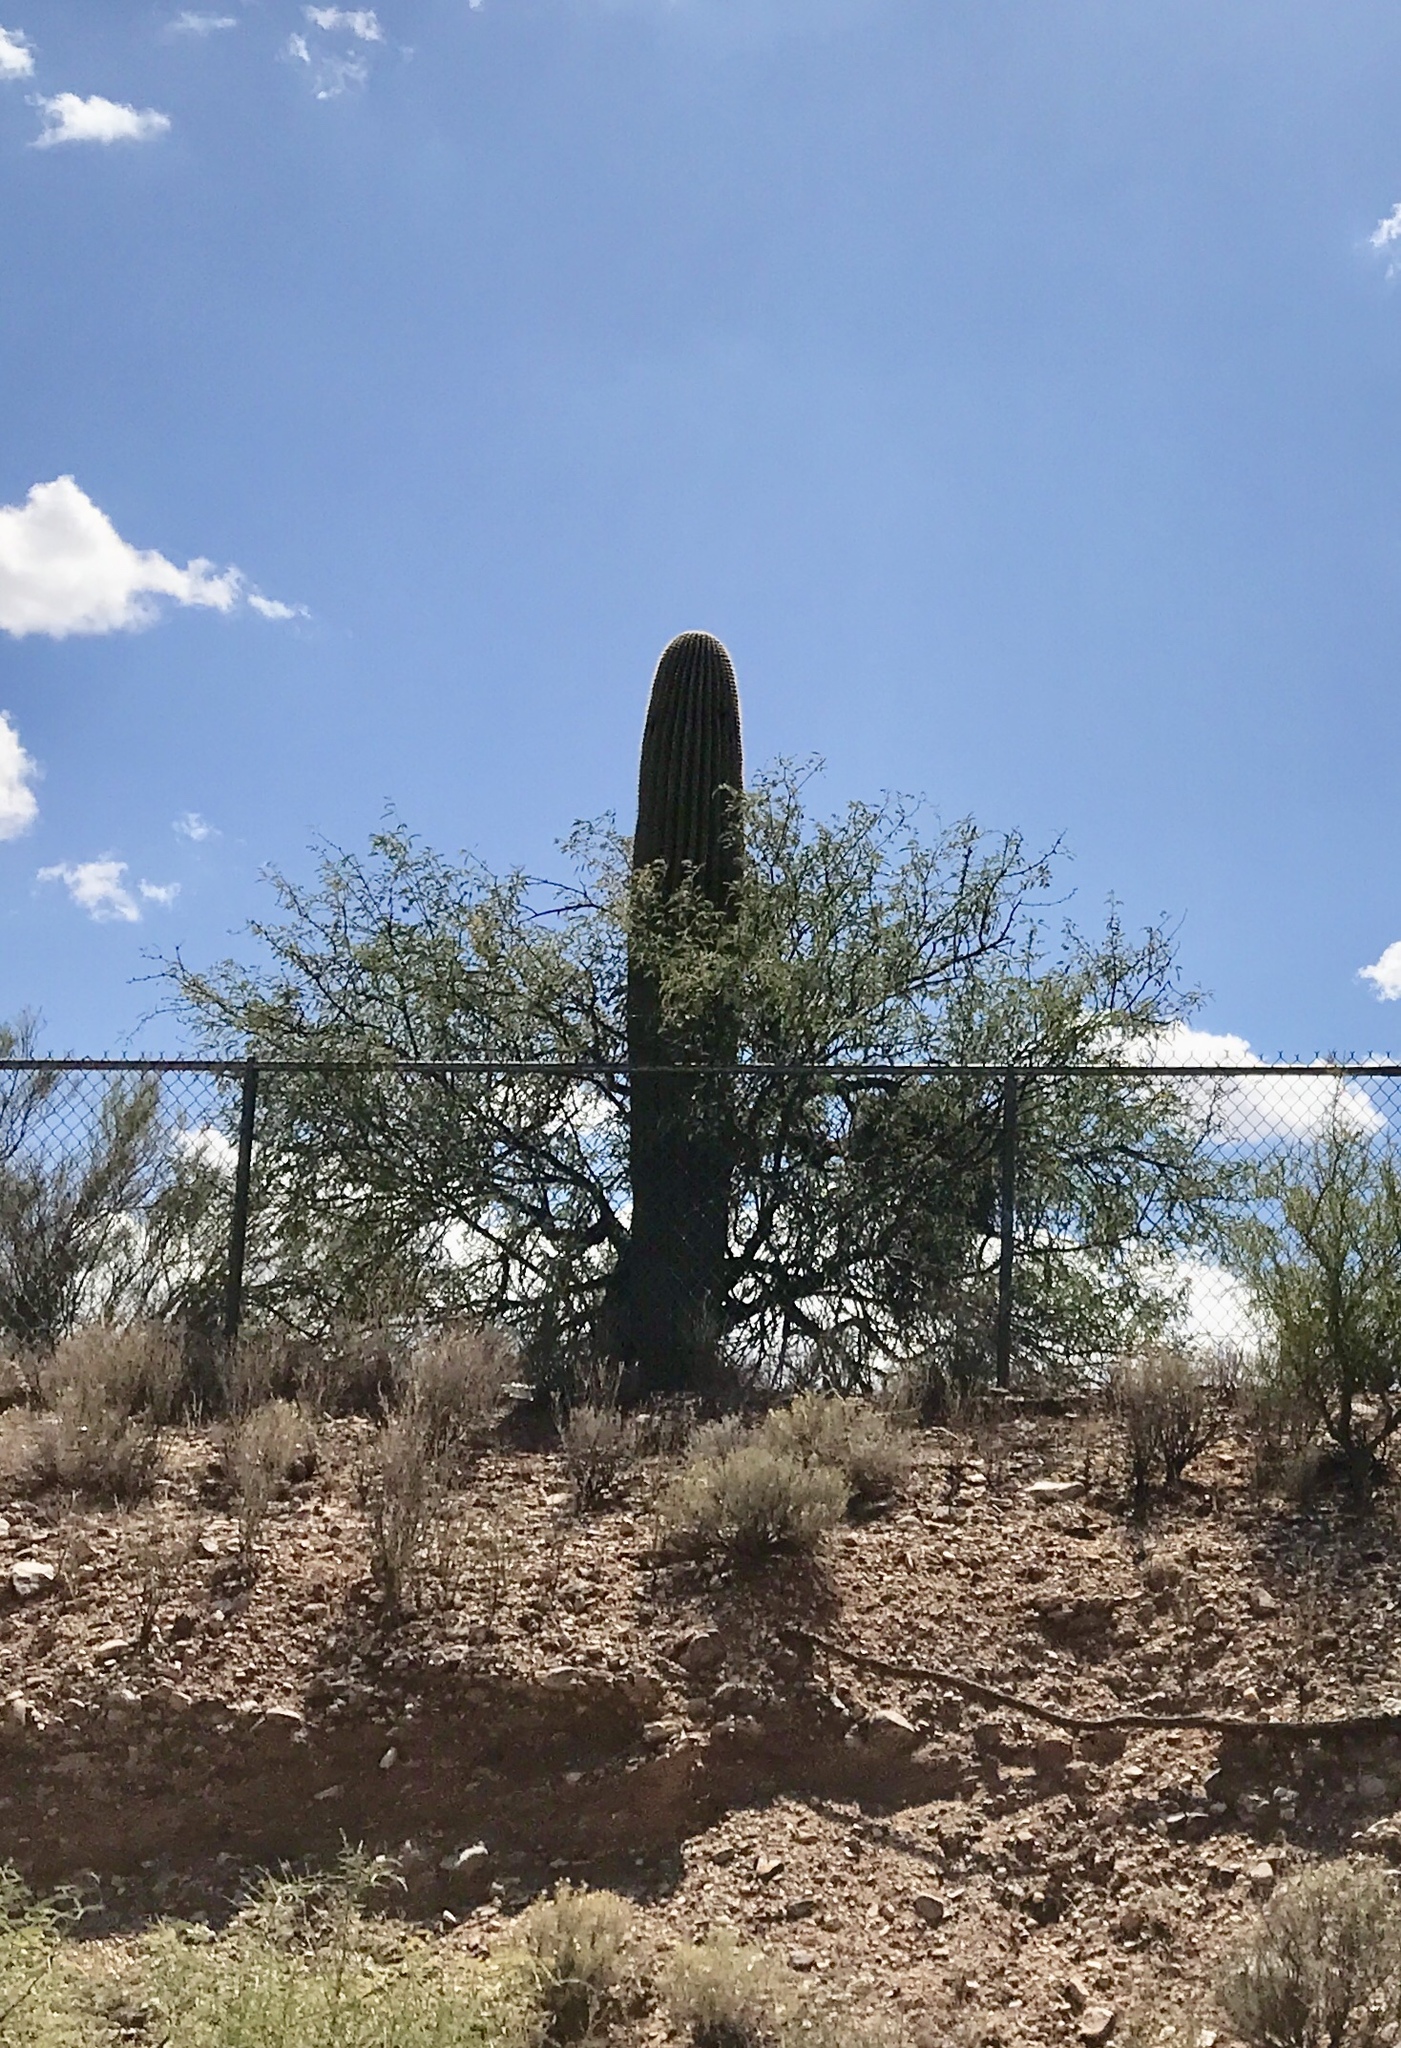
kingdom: Plantae
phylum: Tracheophyta
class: Magnoliopsida
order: Caryophyllales
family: Cactaceae
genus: Carnegiea
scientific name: Carnegiea gigantea
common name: Saguaro
